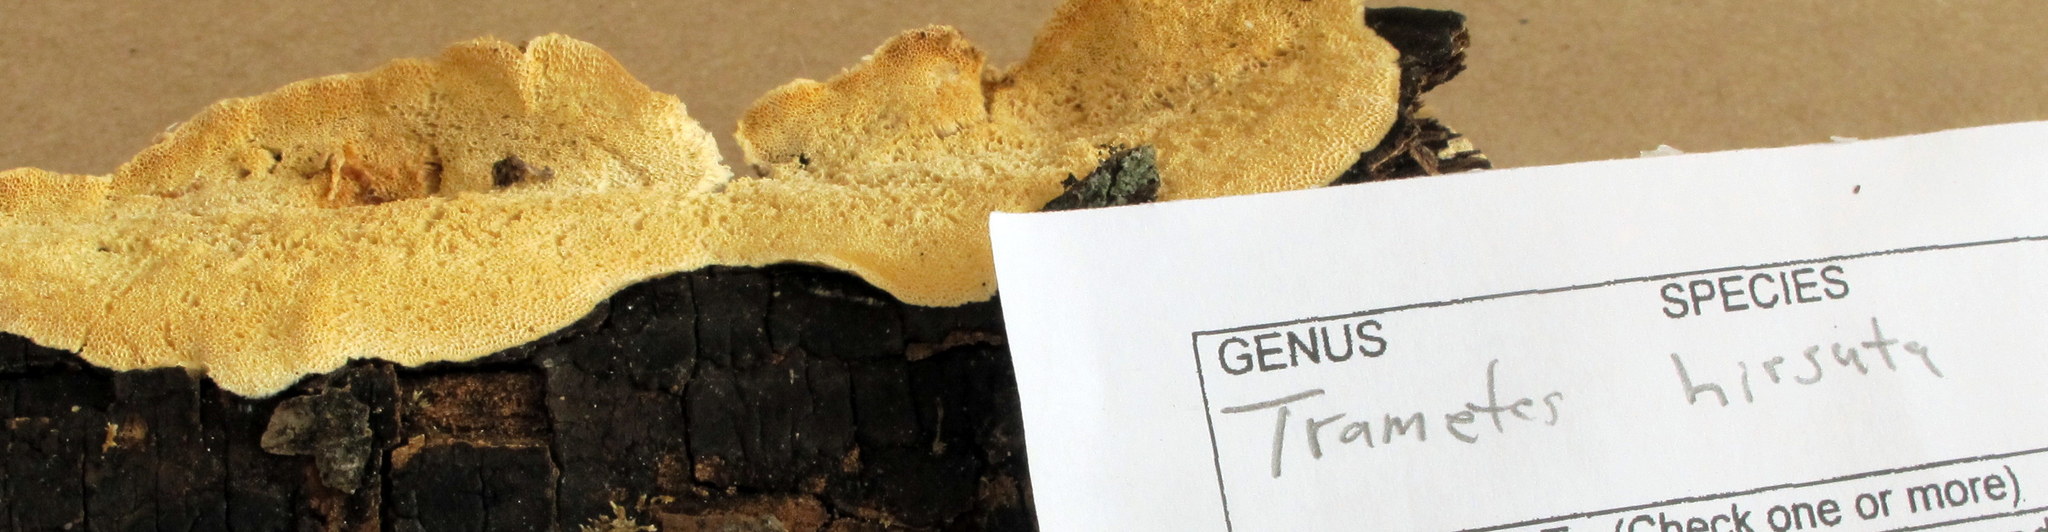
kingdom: Fungi
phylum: Basidiomycota
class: Agaricomycetes
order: Polyporales
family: Polyporaceae
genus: Trametes
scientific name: Trametes hirsuta
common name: Hairy bracket
